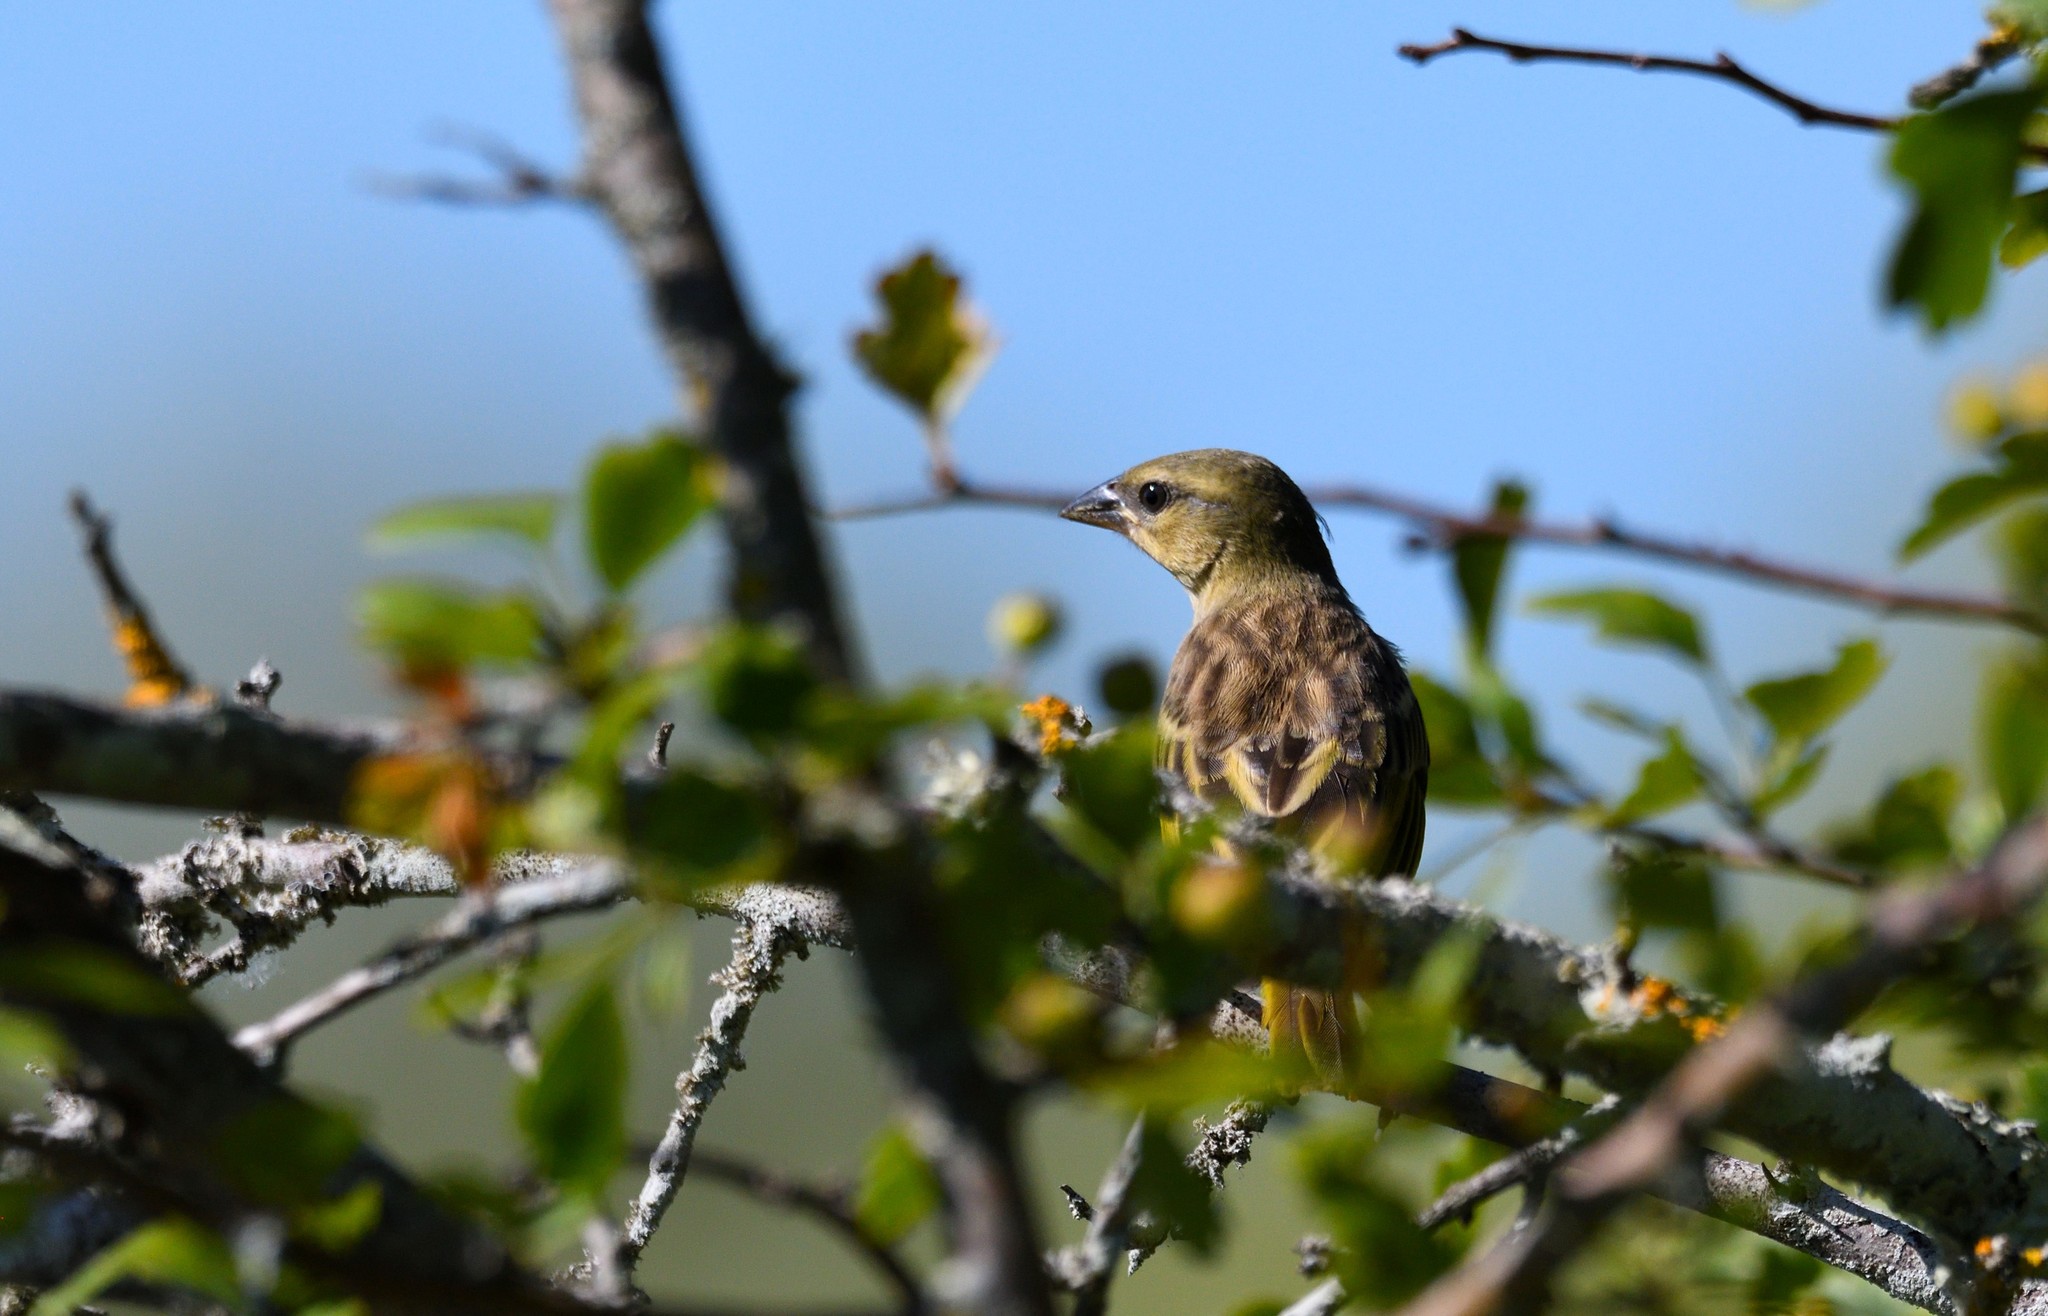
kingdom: Animalia
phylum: Chordata
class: Aves
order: Passeriformes
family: Ploceidae
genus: Ploceus
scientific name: Ploceus melanocephalus
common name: Black-headed weaver
